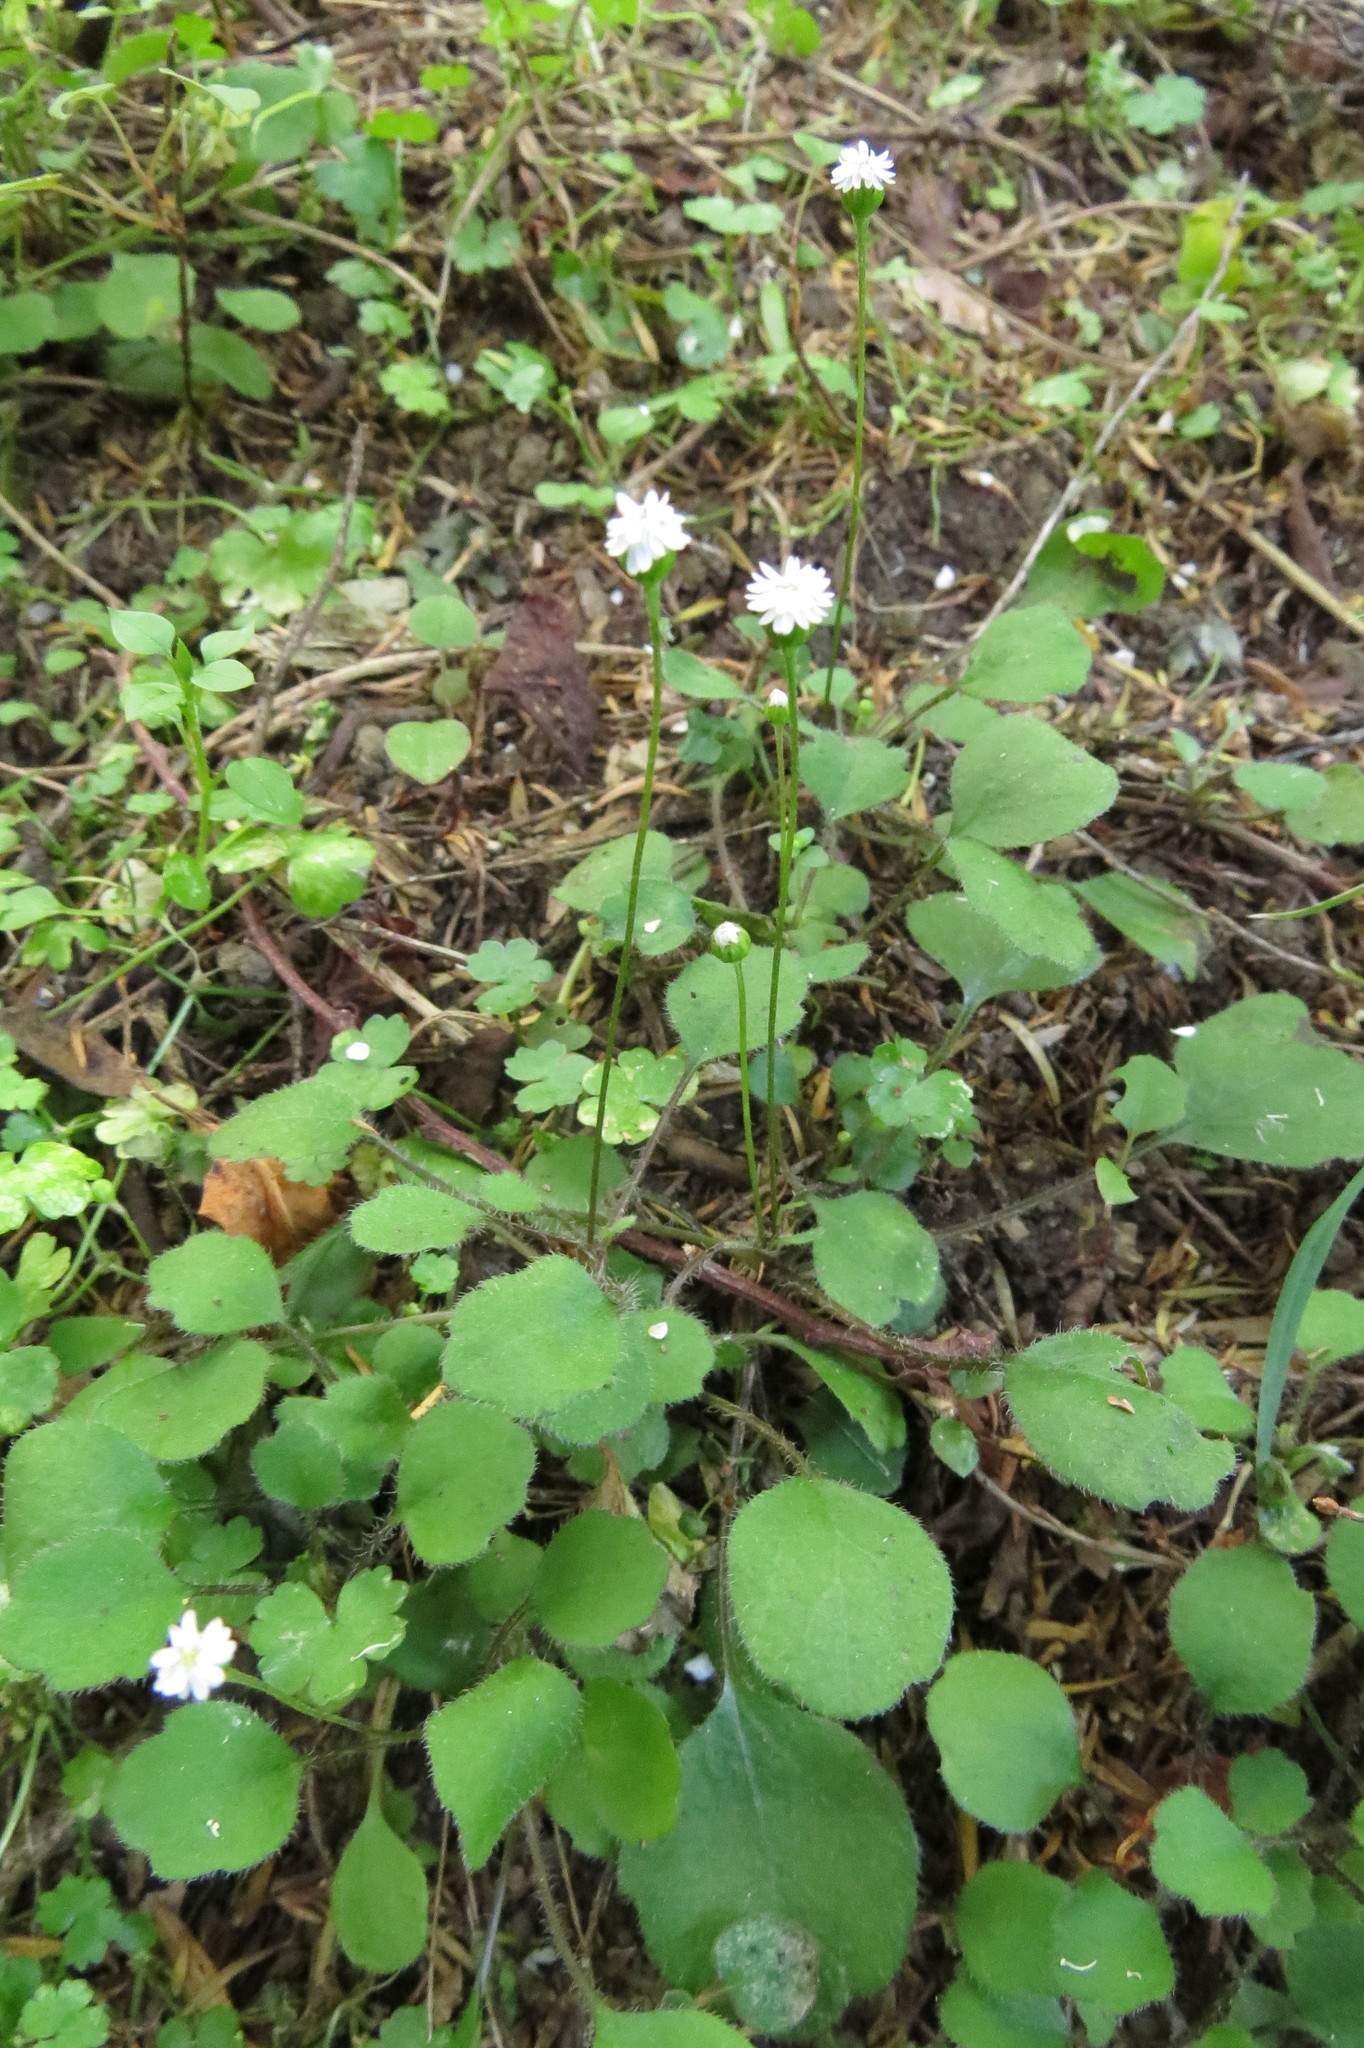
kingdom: Plantae
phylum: Tracheophyta
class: Magnoliopsida
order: Asterales
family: Asteraceae
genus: Lagenophora
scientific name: Lagenophora strangulata
